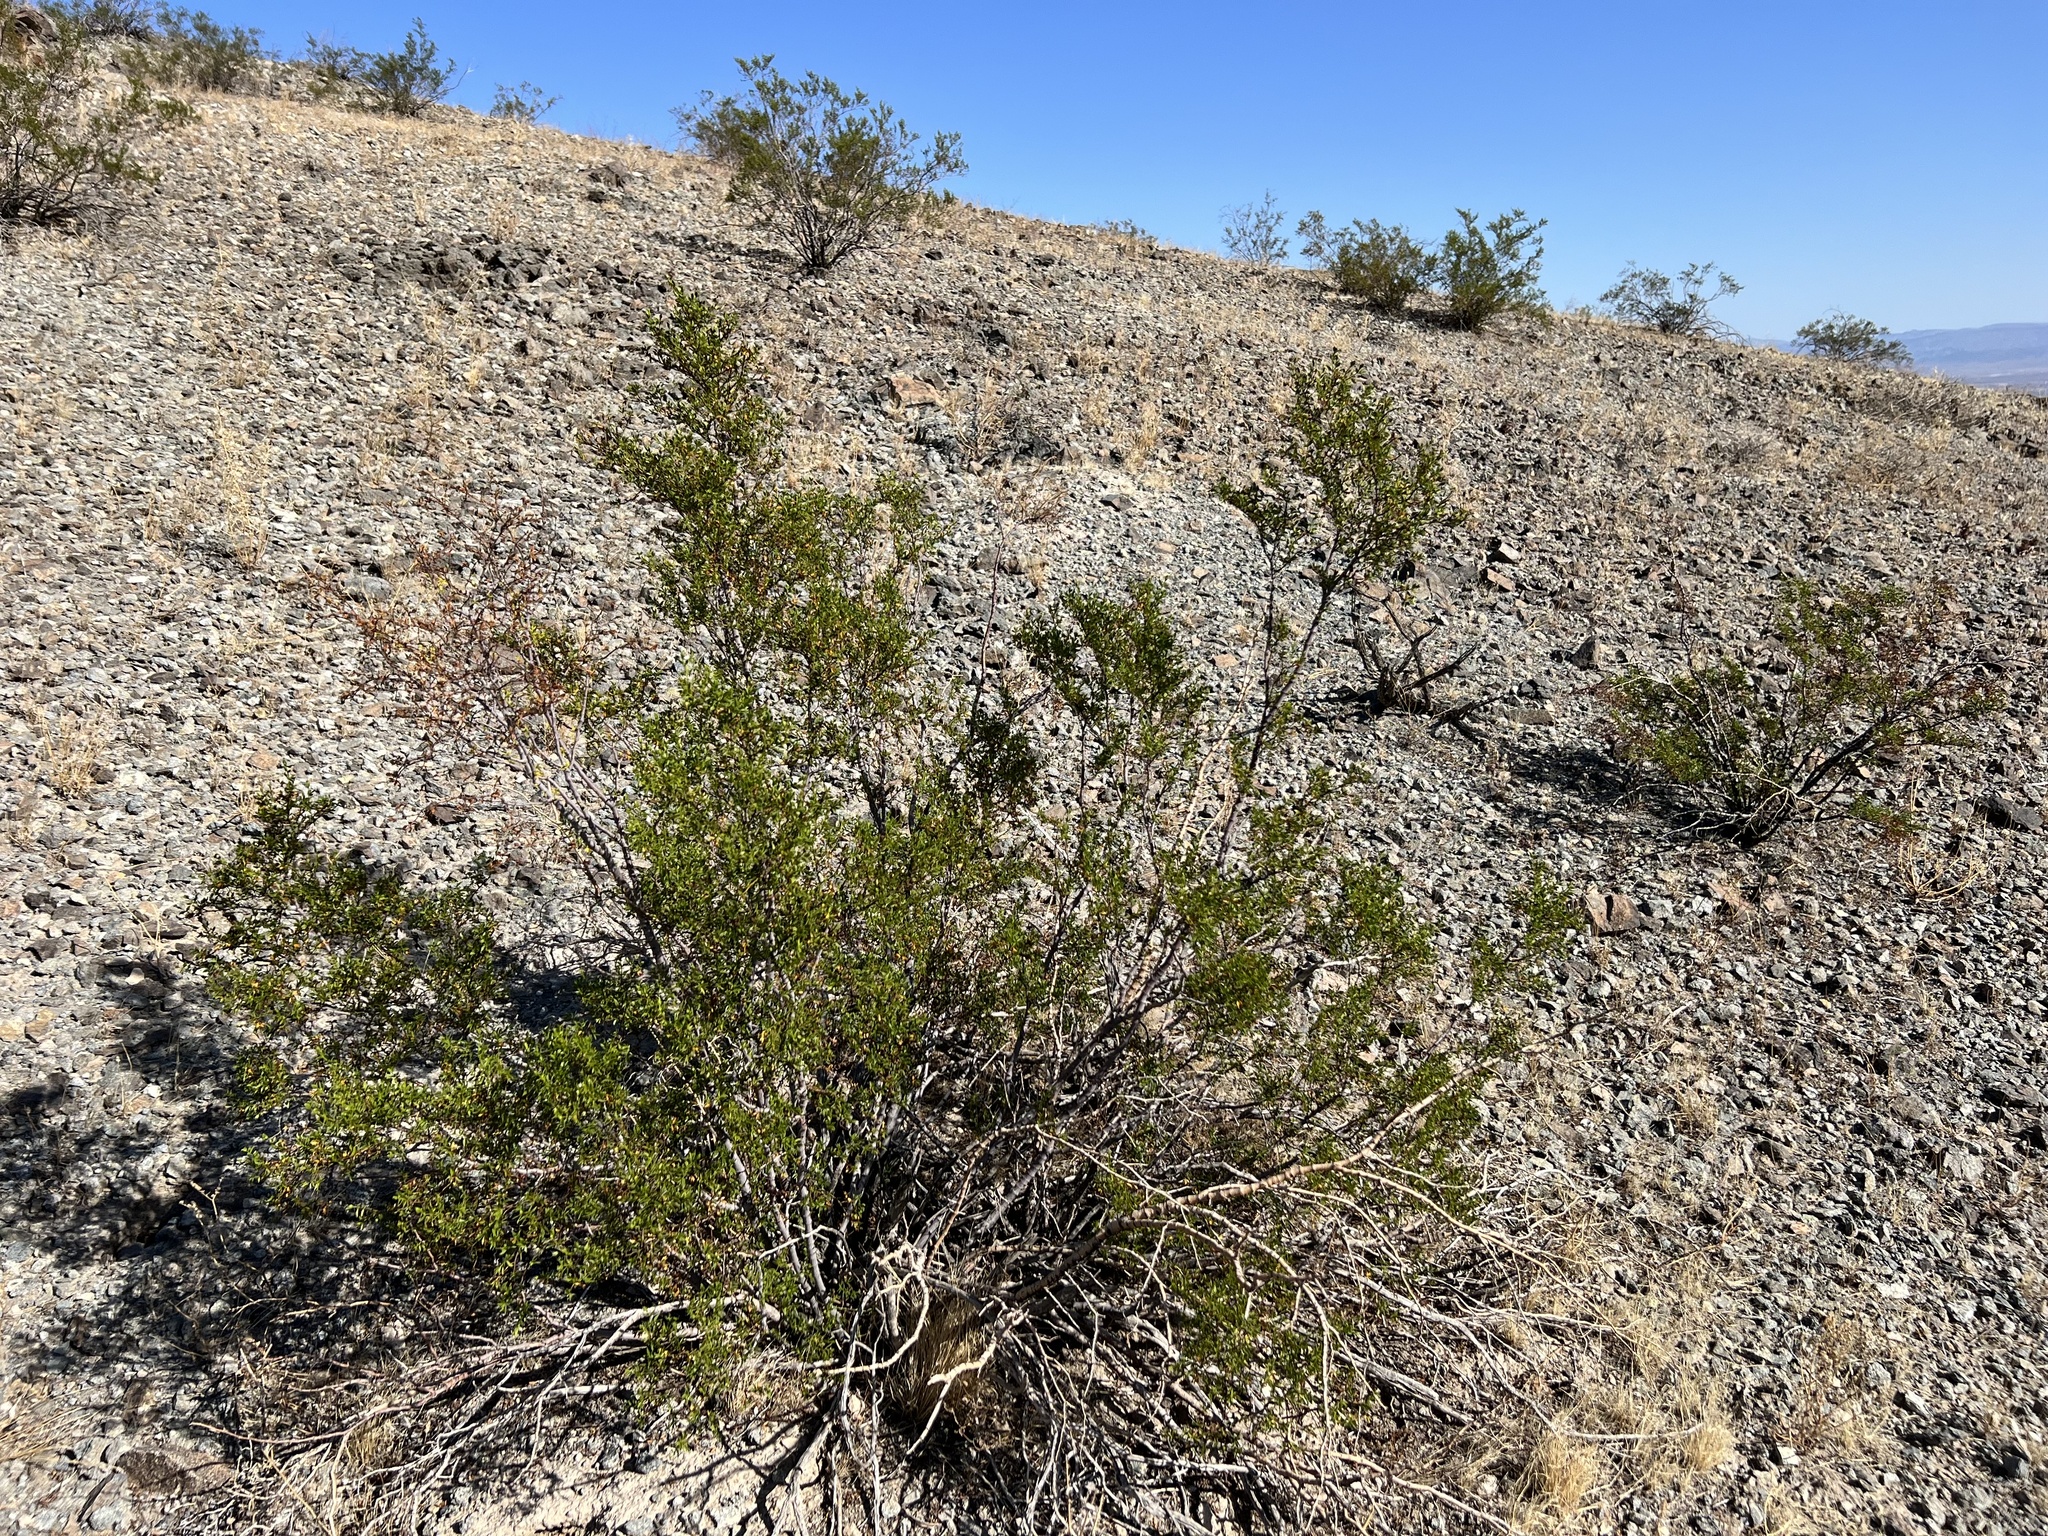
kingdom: Plantae
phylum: Tracheophyta
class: Magnoliopsida
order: Zygophyllales
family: Zygophyllaceae
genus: Larrea
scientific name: Larrea tridentata
